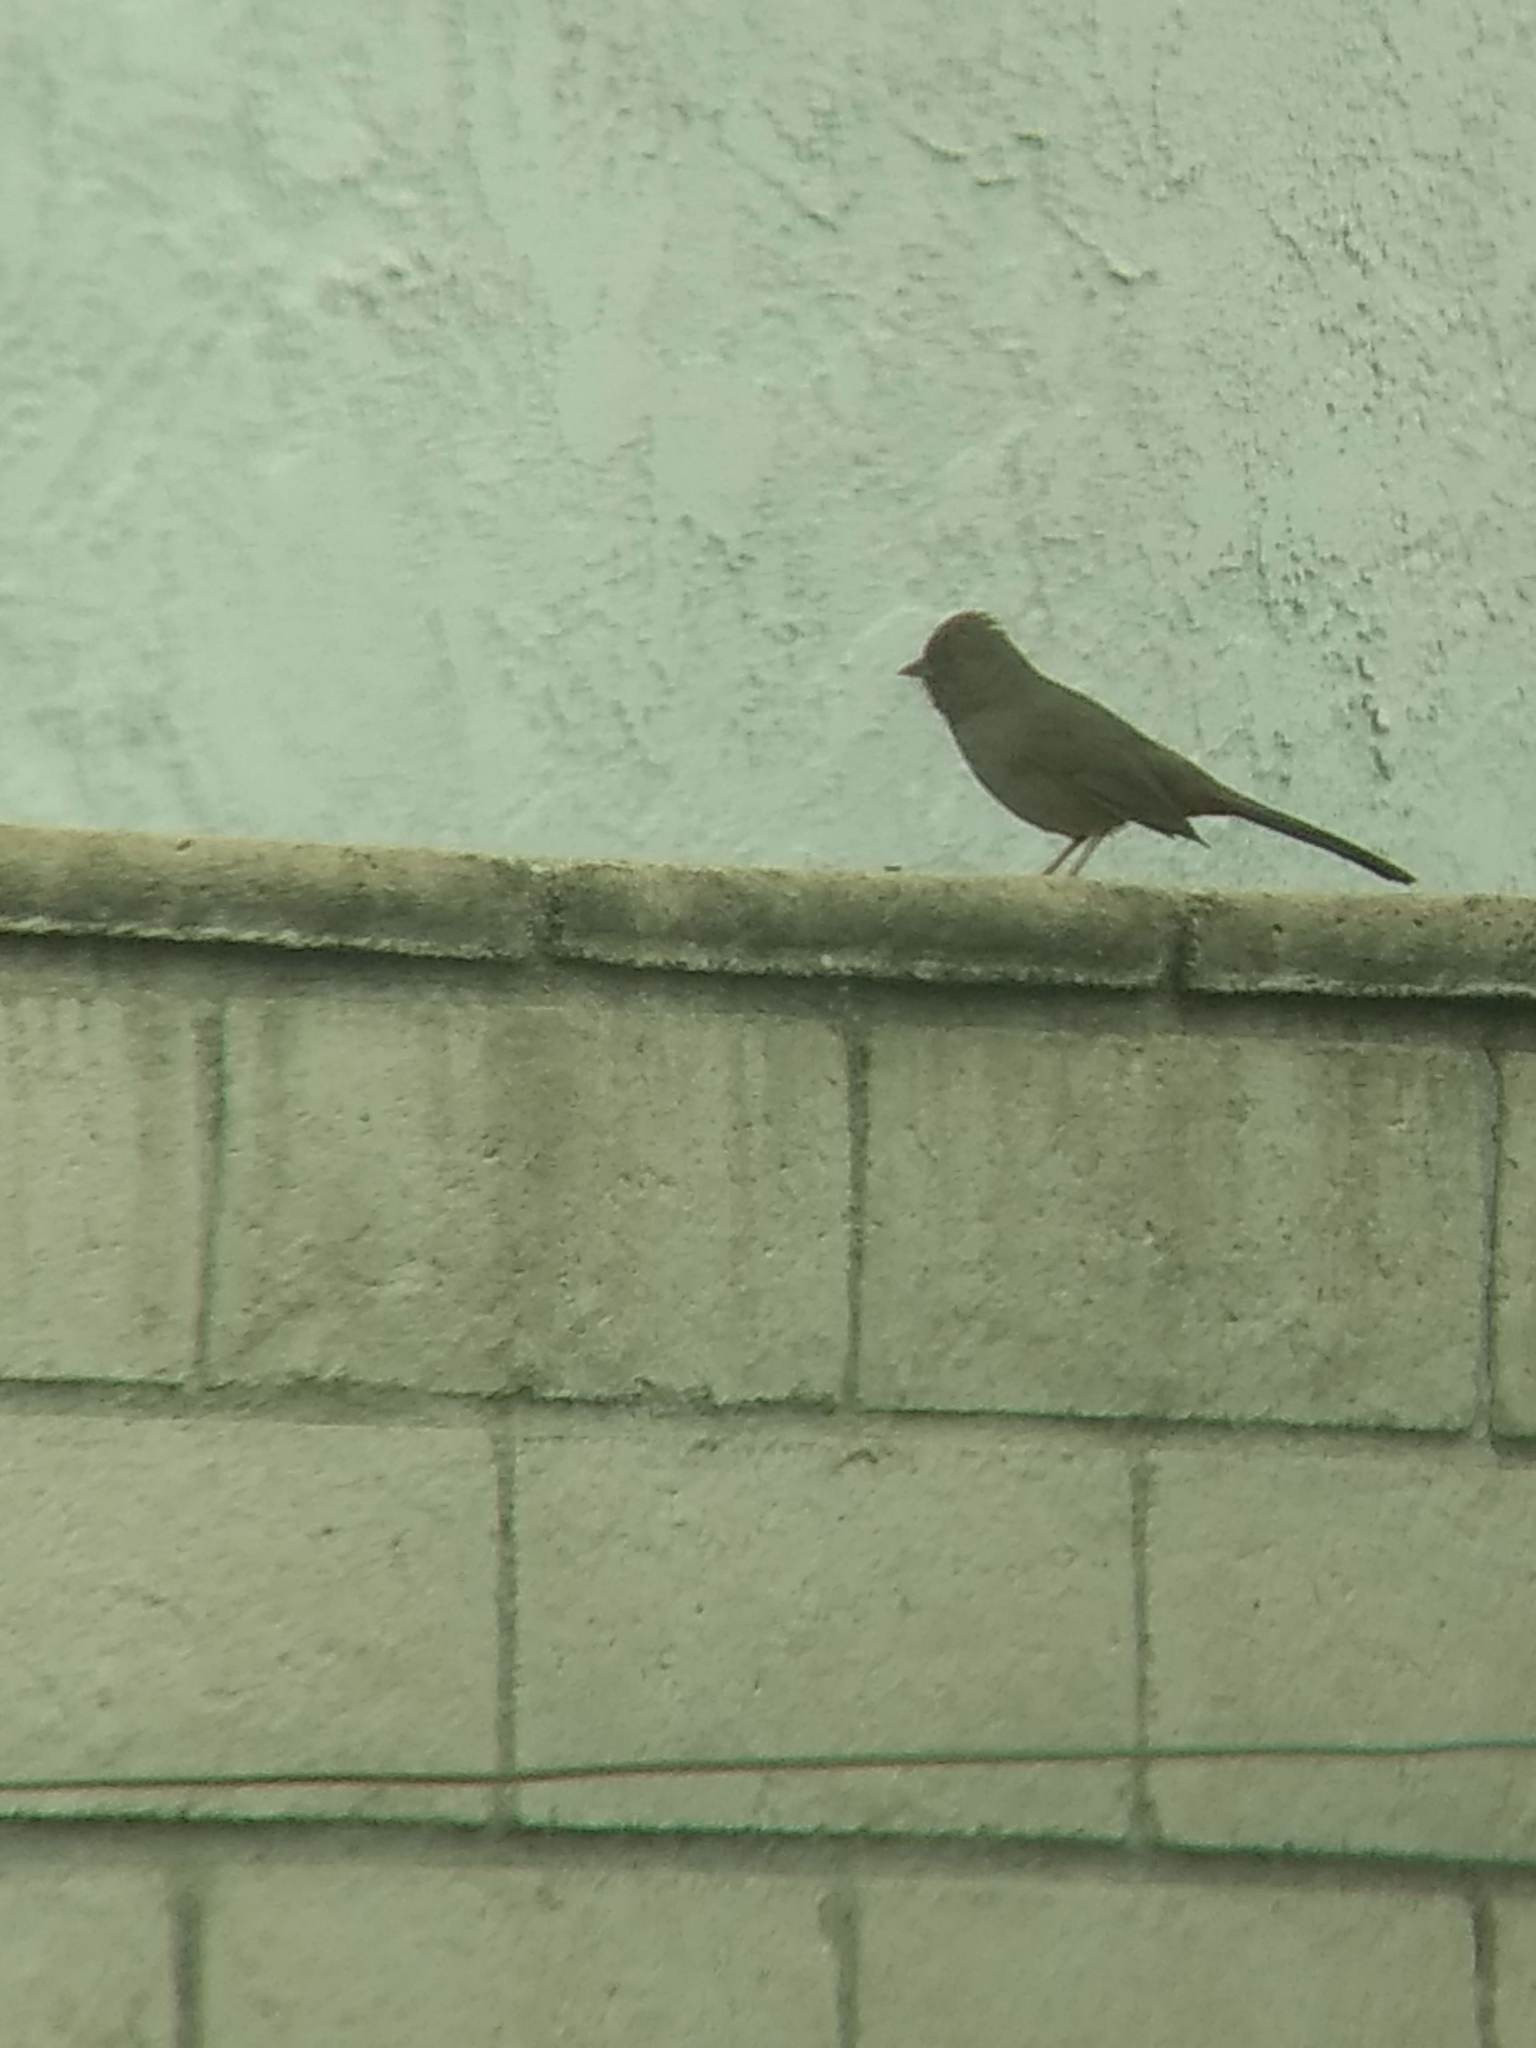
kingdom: Animalia
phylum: Chordata
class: Aves
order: Passeriformes
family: Passerellidae
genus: Melozone
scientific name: Melozone crissalis
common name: California towhee
